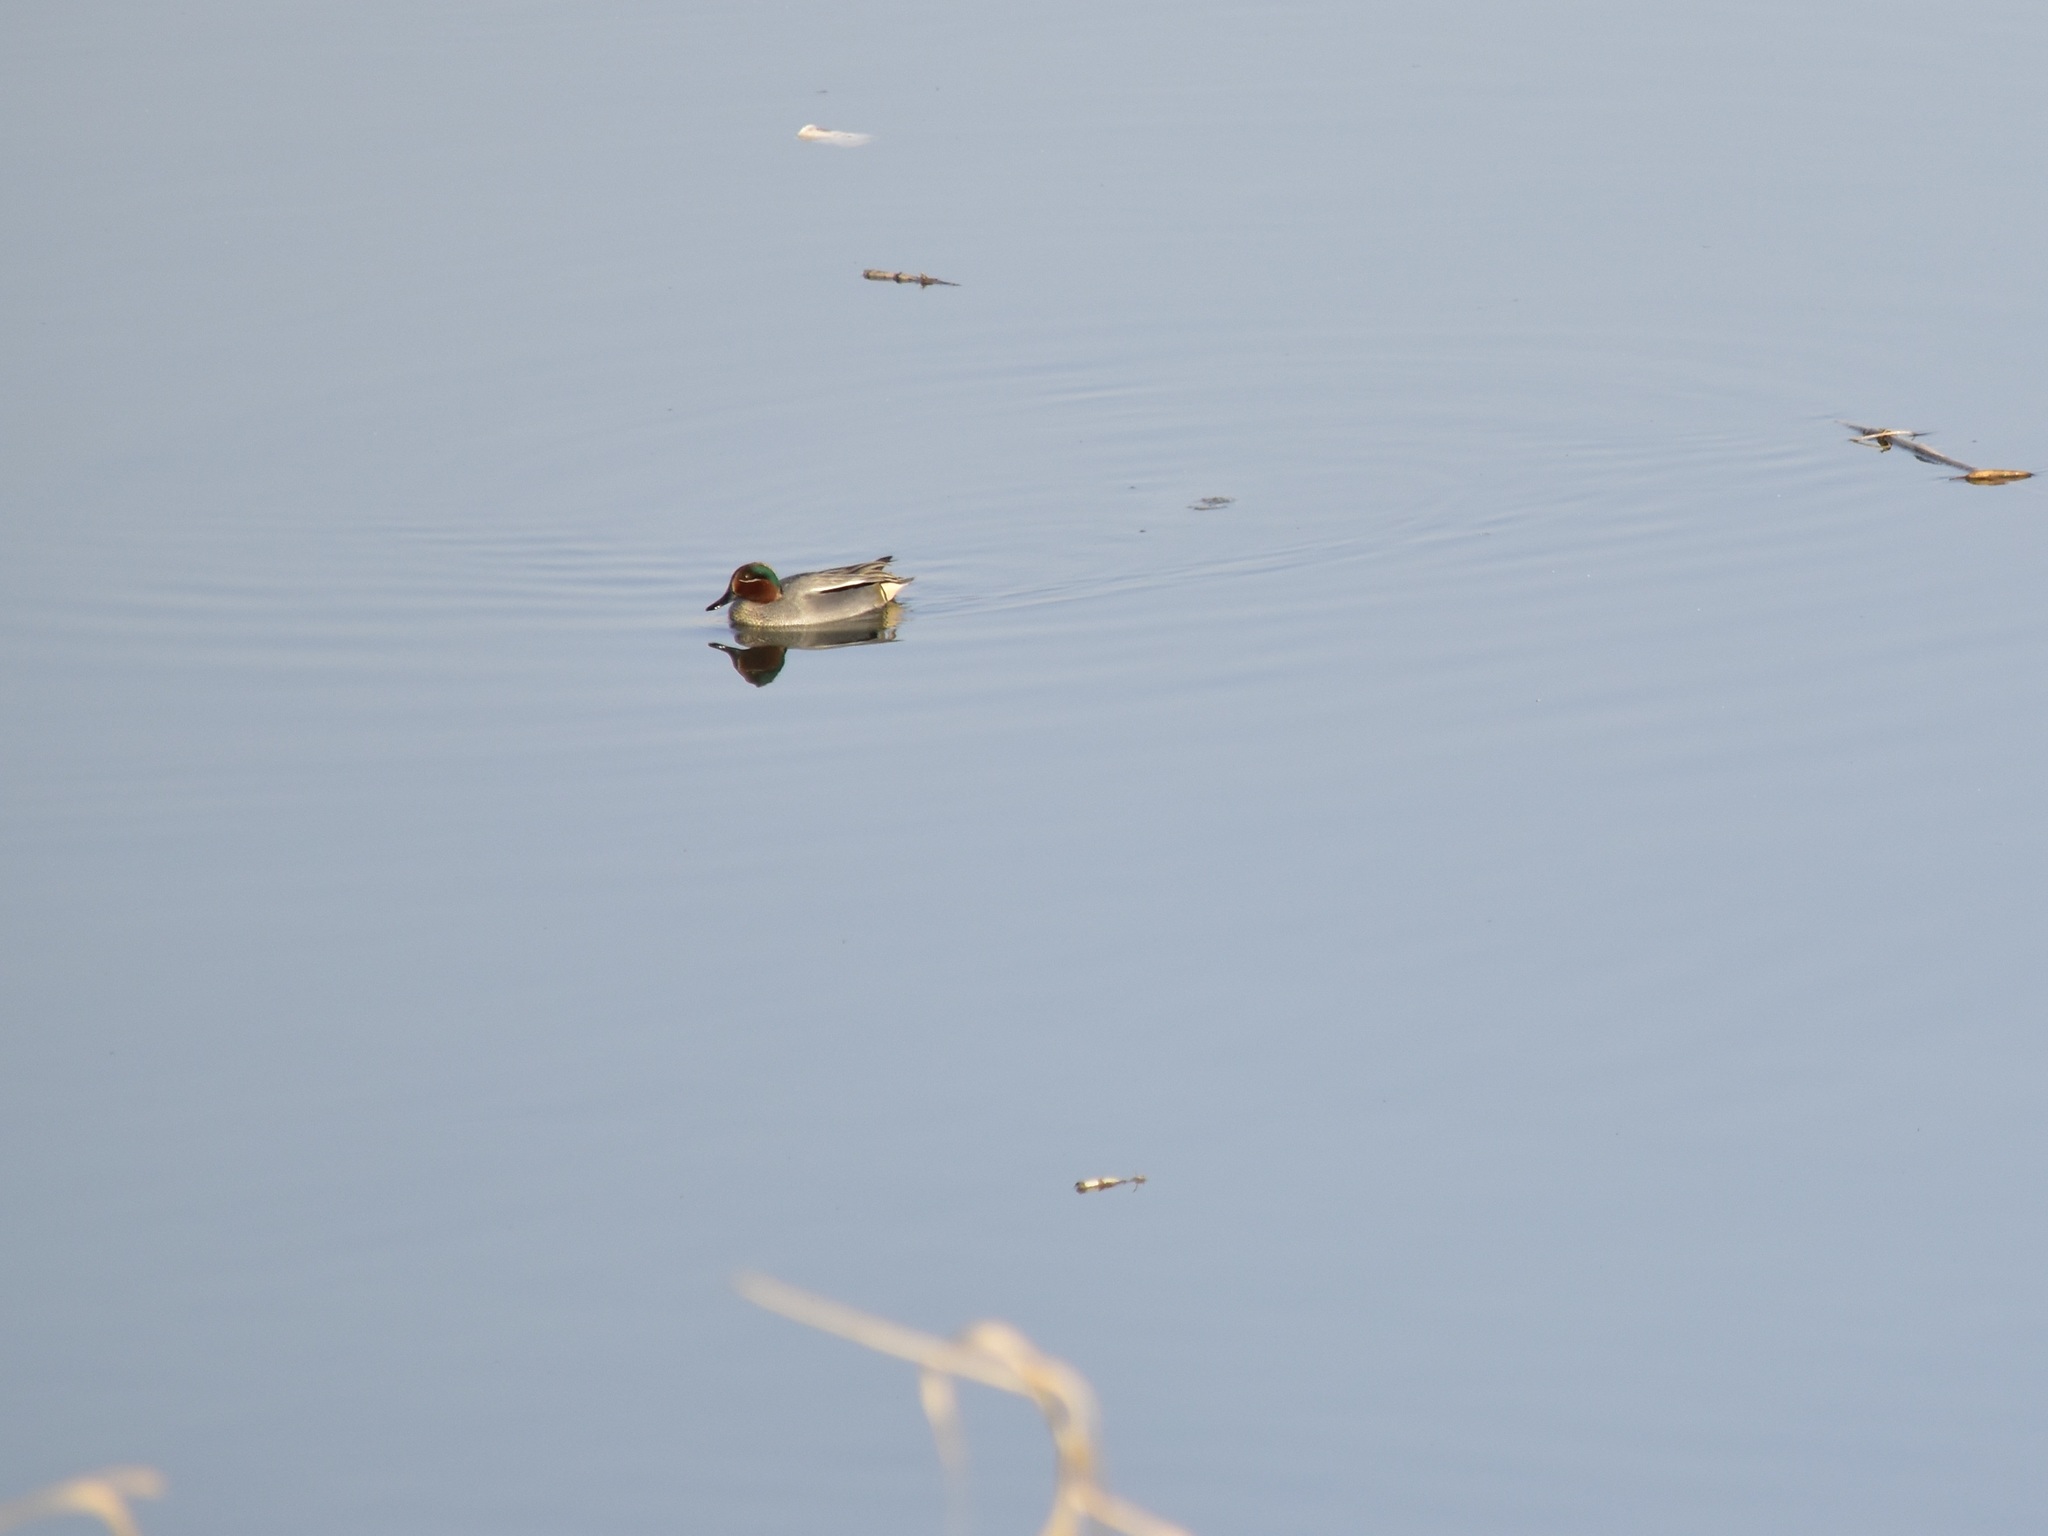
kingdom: Animalia
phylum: Chordata
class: Aves
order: Anseriformes
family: Anatidae
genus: Anas
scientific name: Anas crecca
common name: Eurasian teal
